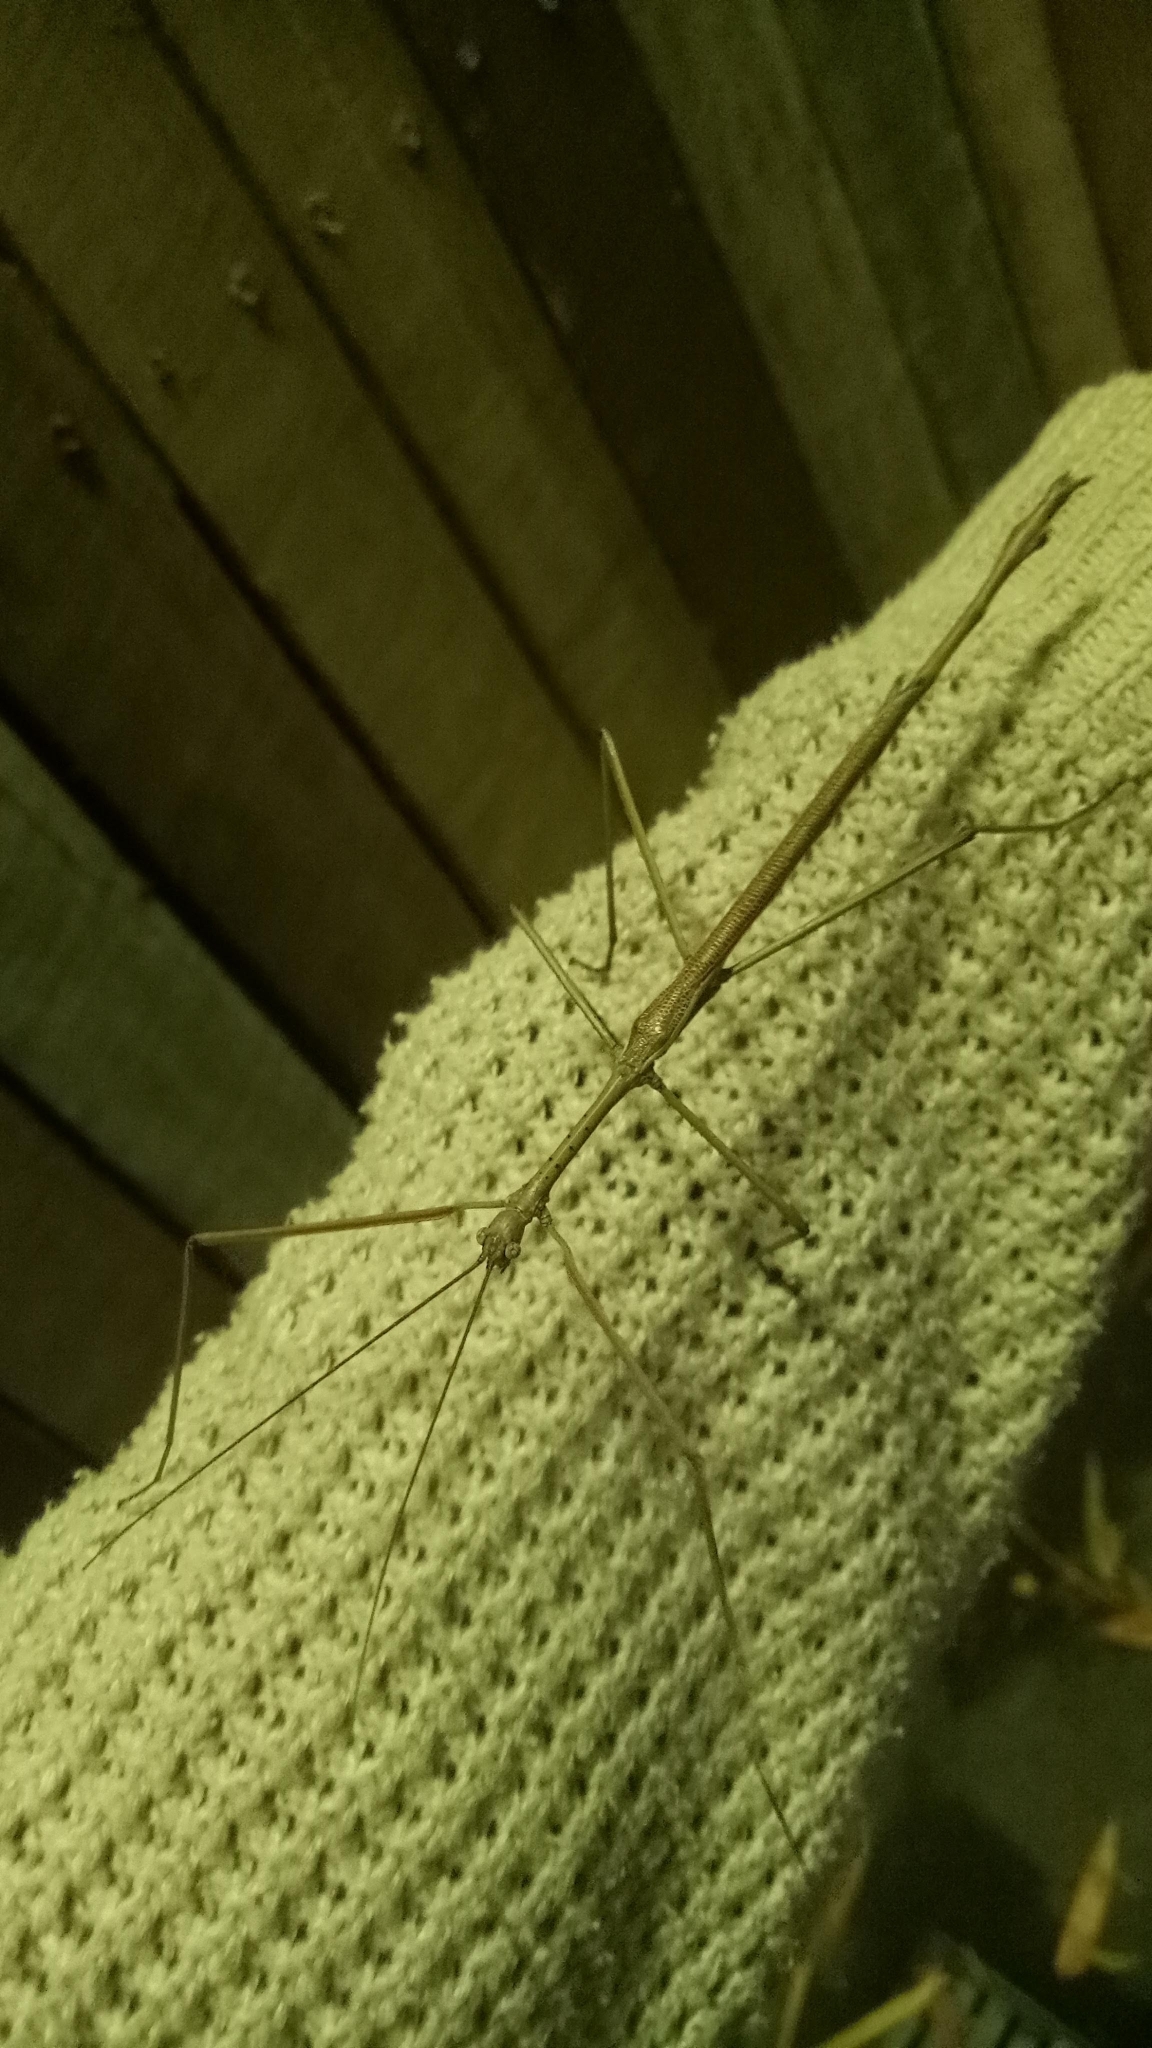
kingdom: Animalia
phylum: Arthropoda
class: Insecta
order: Phasmida
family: Phasmatidae
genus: Anchiale
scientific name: Anchiale austrotessulata
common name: Tessellated stick-insect
